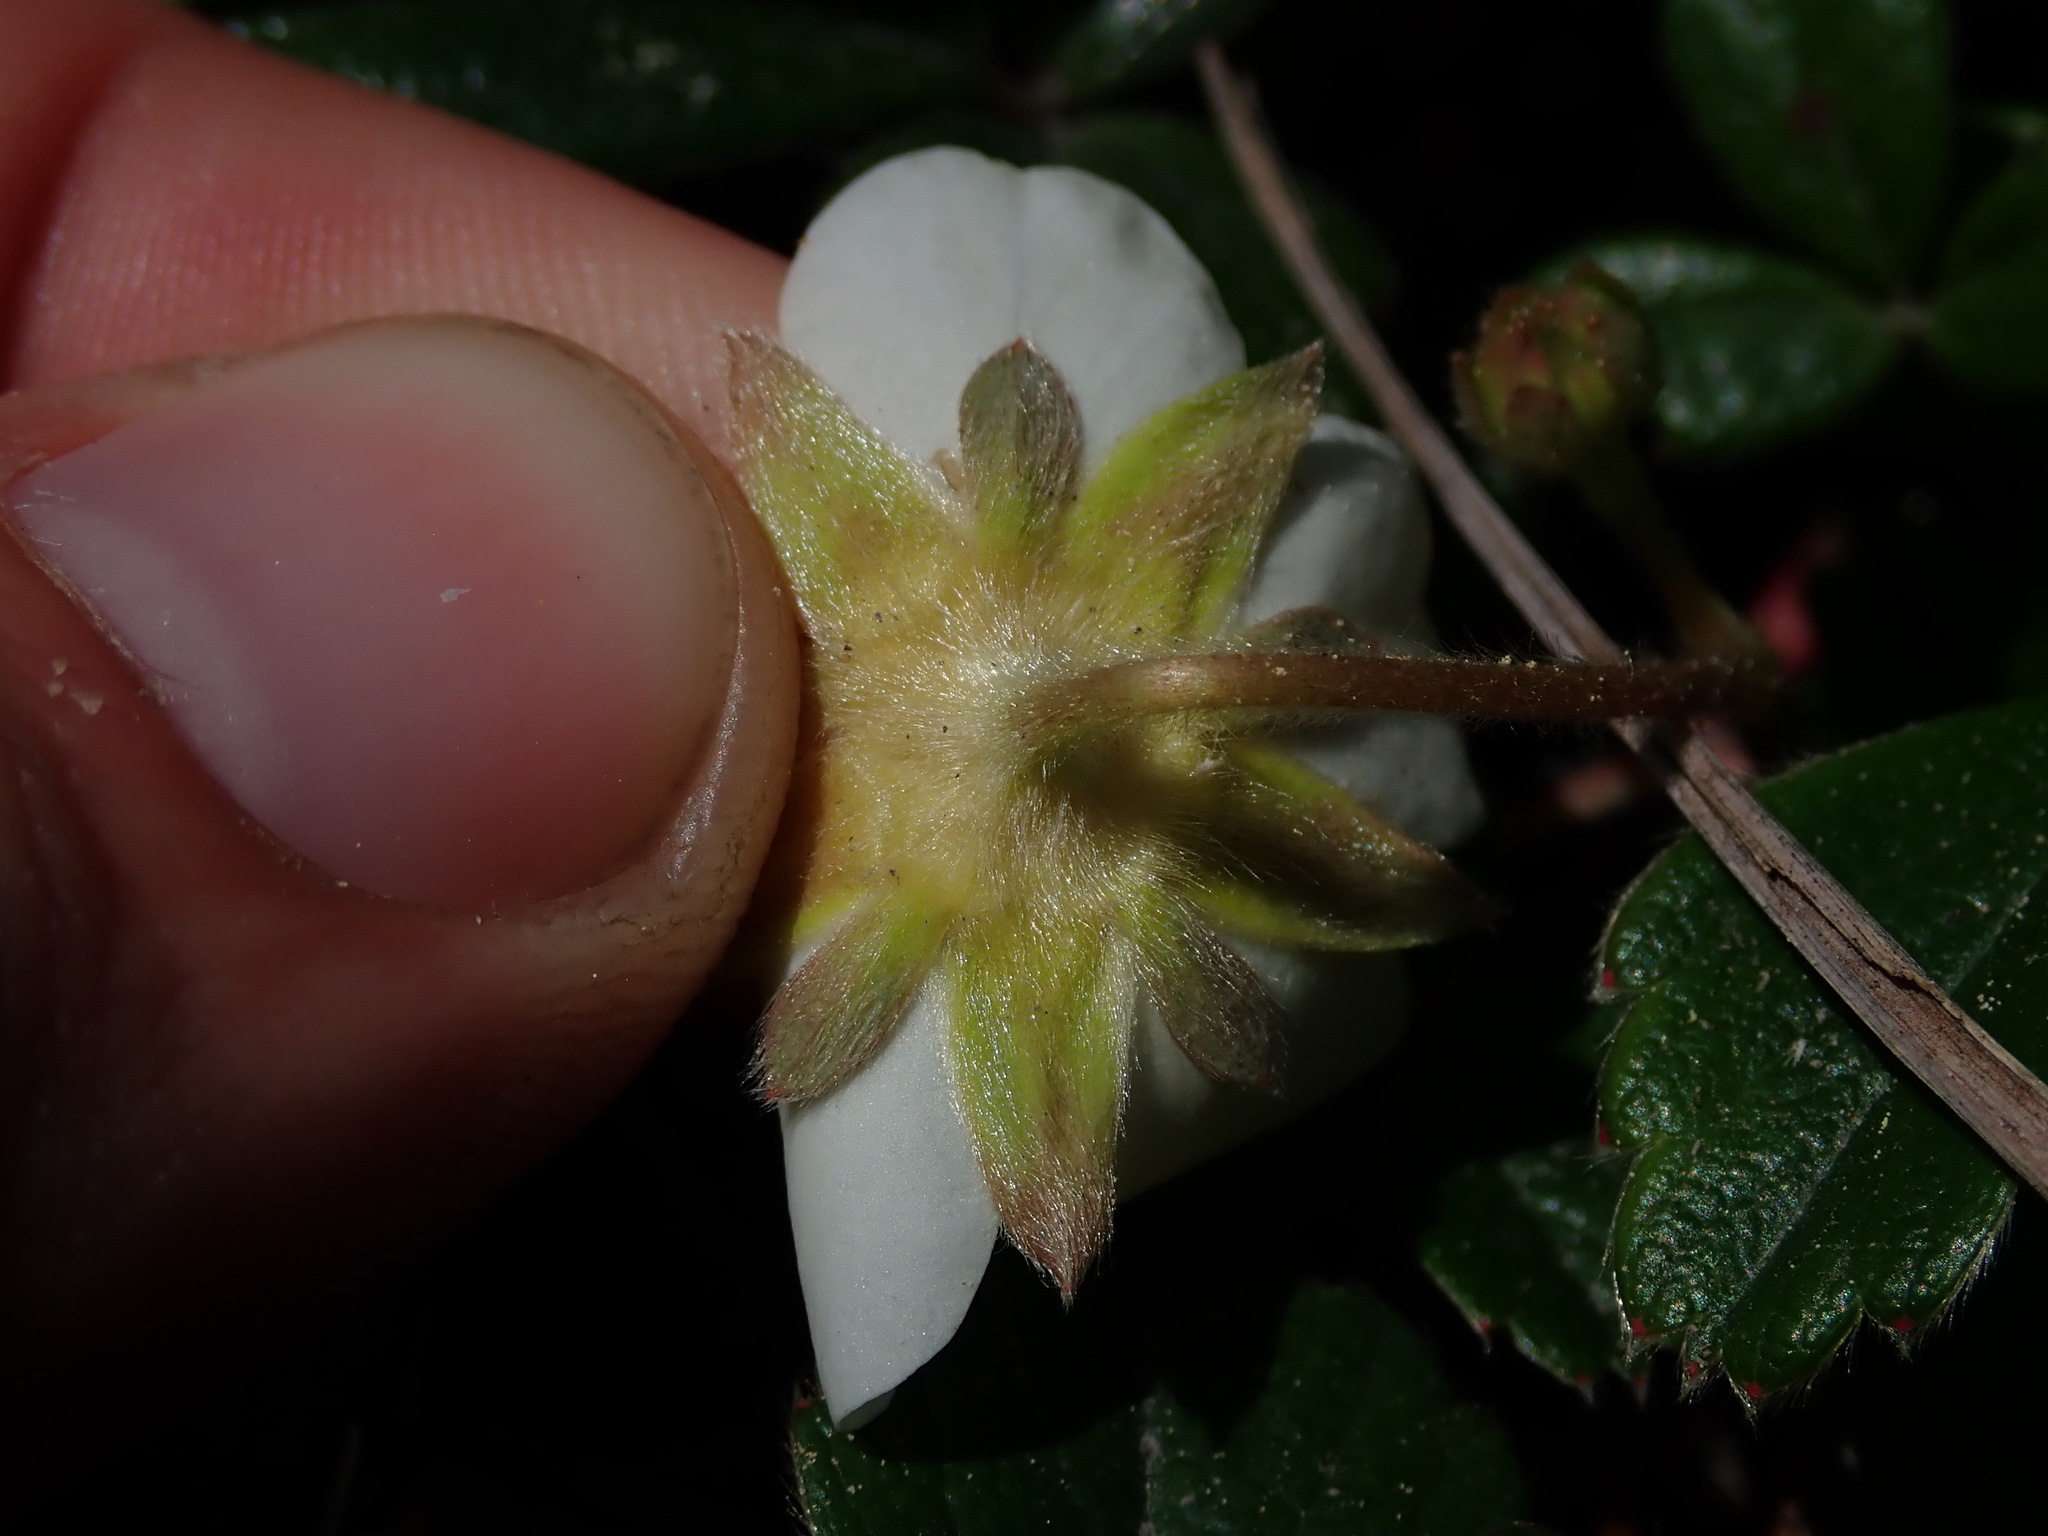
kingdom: Plantae
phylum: Tracheophyta
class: Magnoliopsida
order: Rosales
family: Rosaceae
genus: Fragaria
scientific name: Fragaria chiloensis
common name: Beach strawberry
